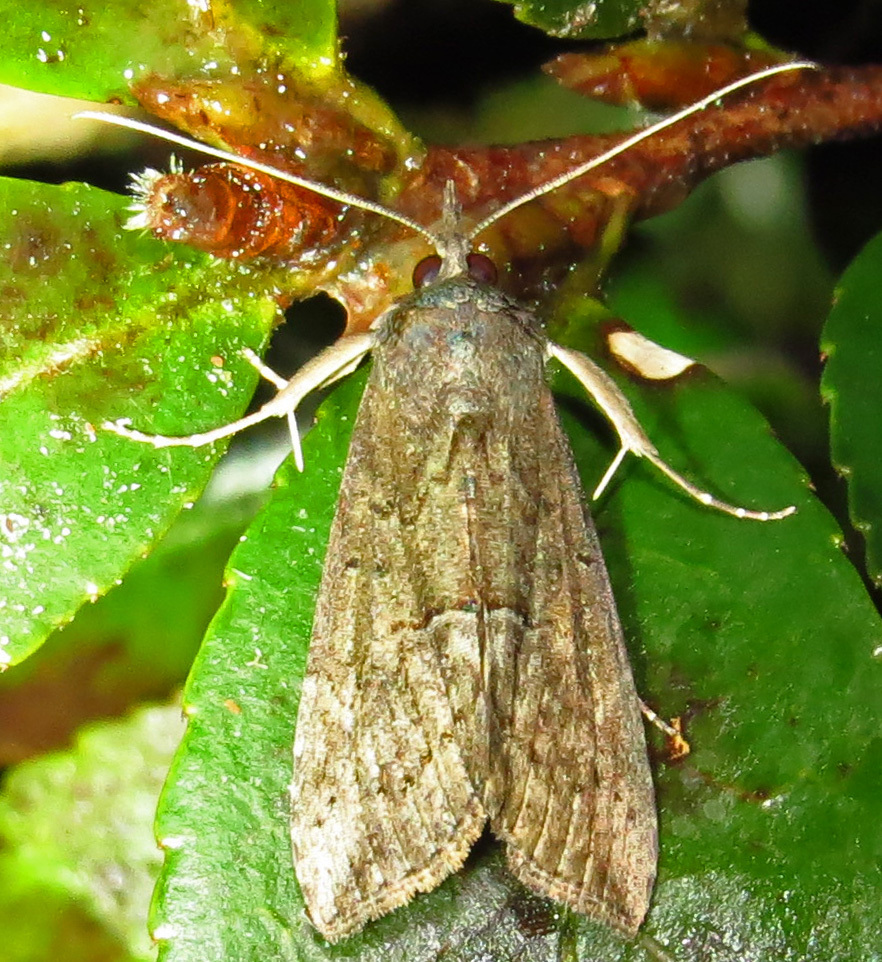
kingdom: Animalia
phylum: Arthropoda
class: Insecta
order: Lepidoptera
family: Erebidae
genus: Hypena
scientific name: Hypena scabra
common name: Green cloverworm
